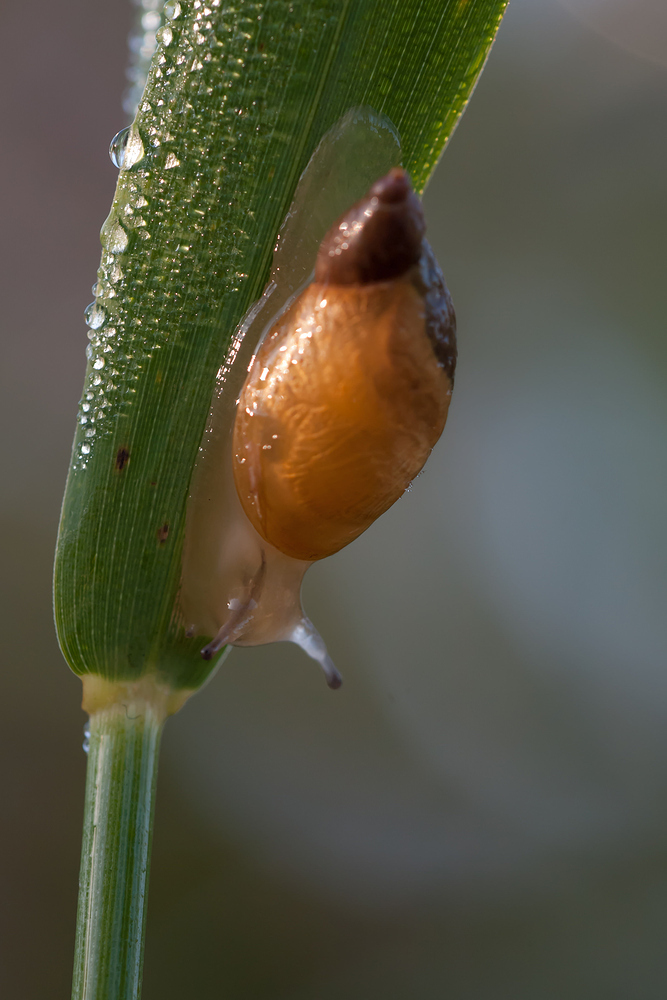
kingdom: Animalia
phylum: Mollusca
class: Gastropoda
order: Stylommatophora
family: Succineidae
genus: Succinea
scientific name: Succinea putris
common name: European ambersnail
